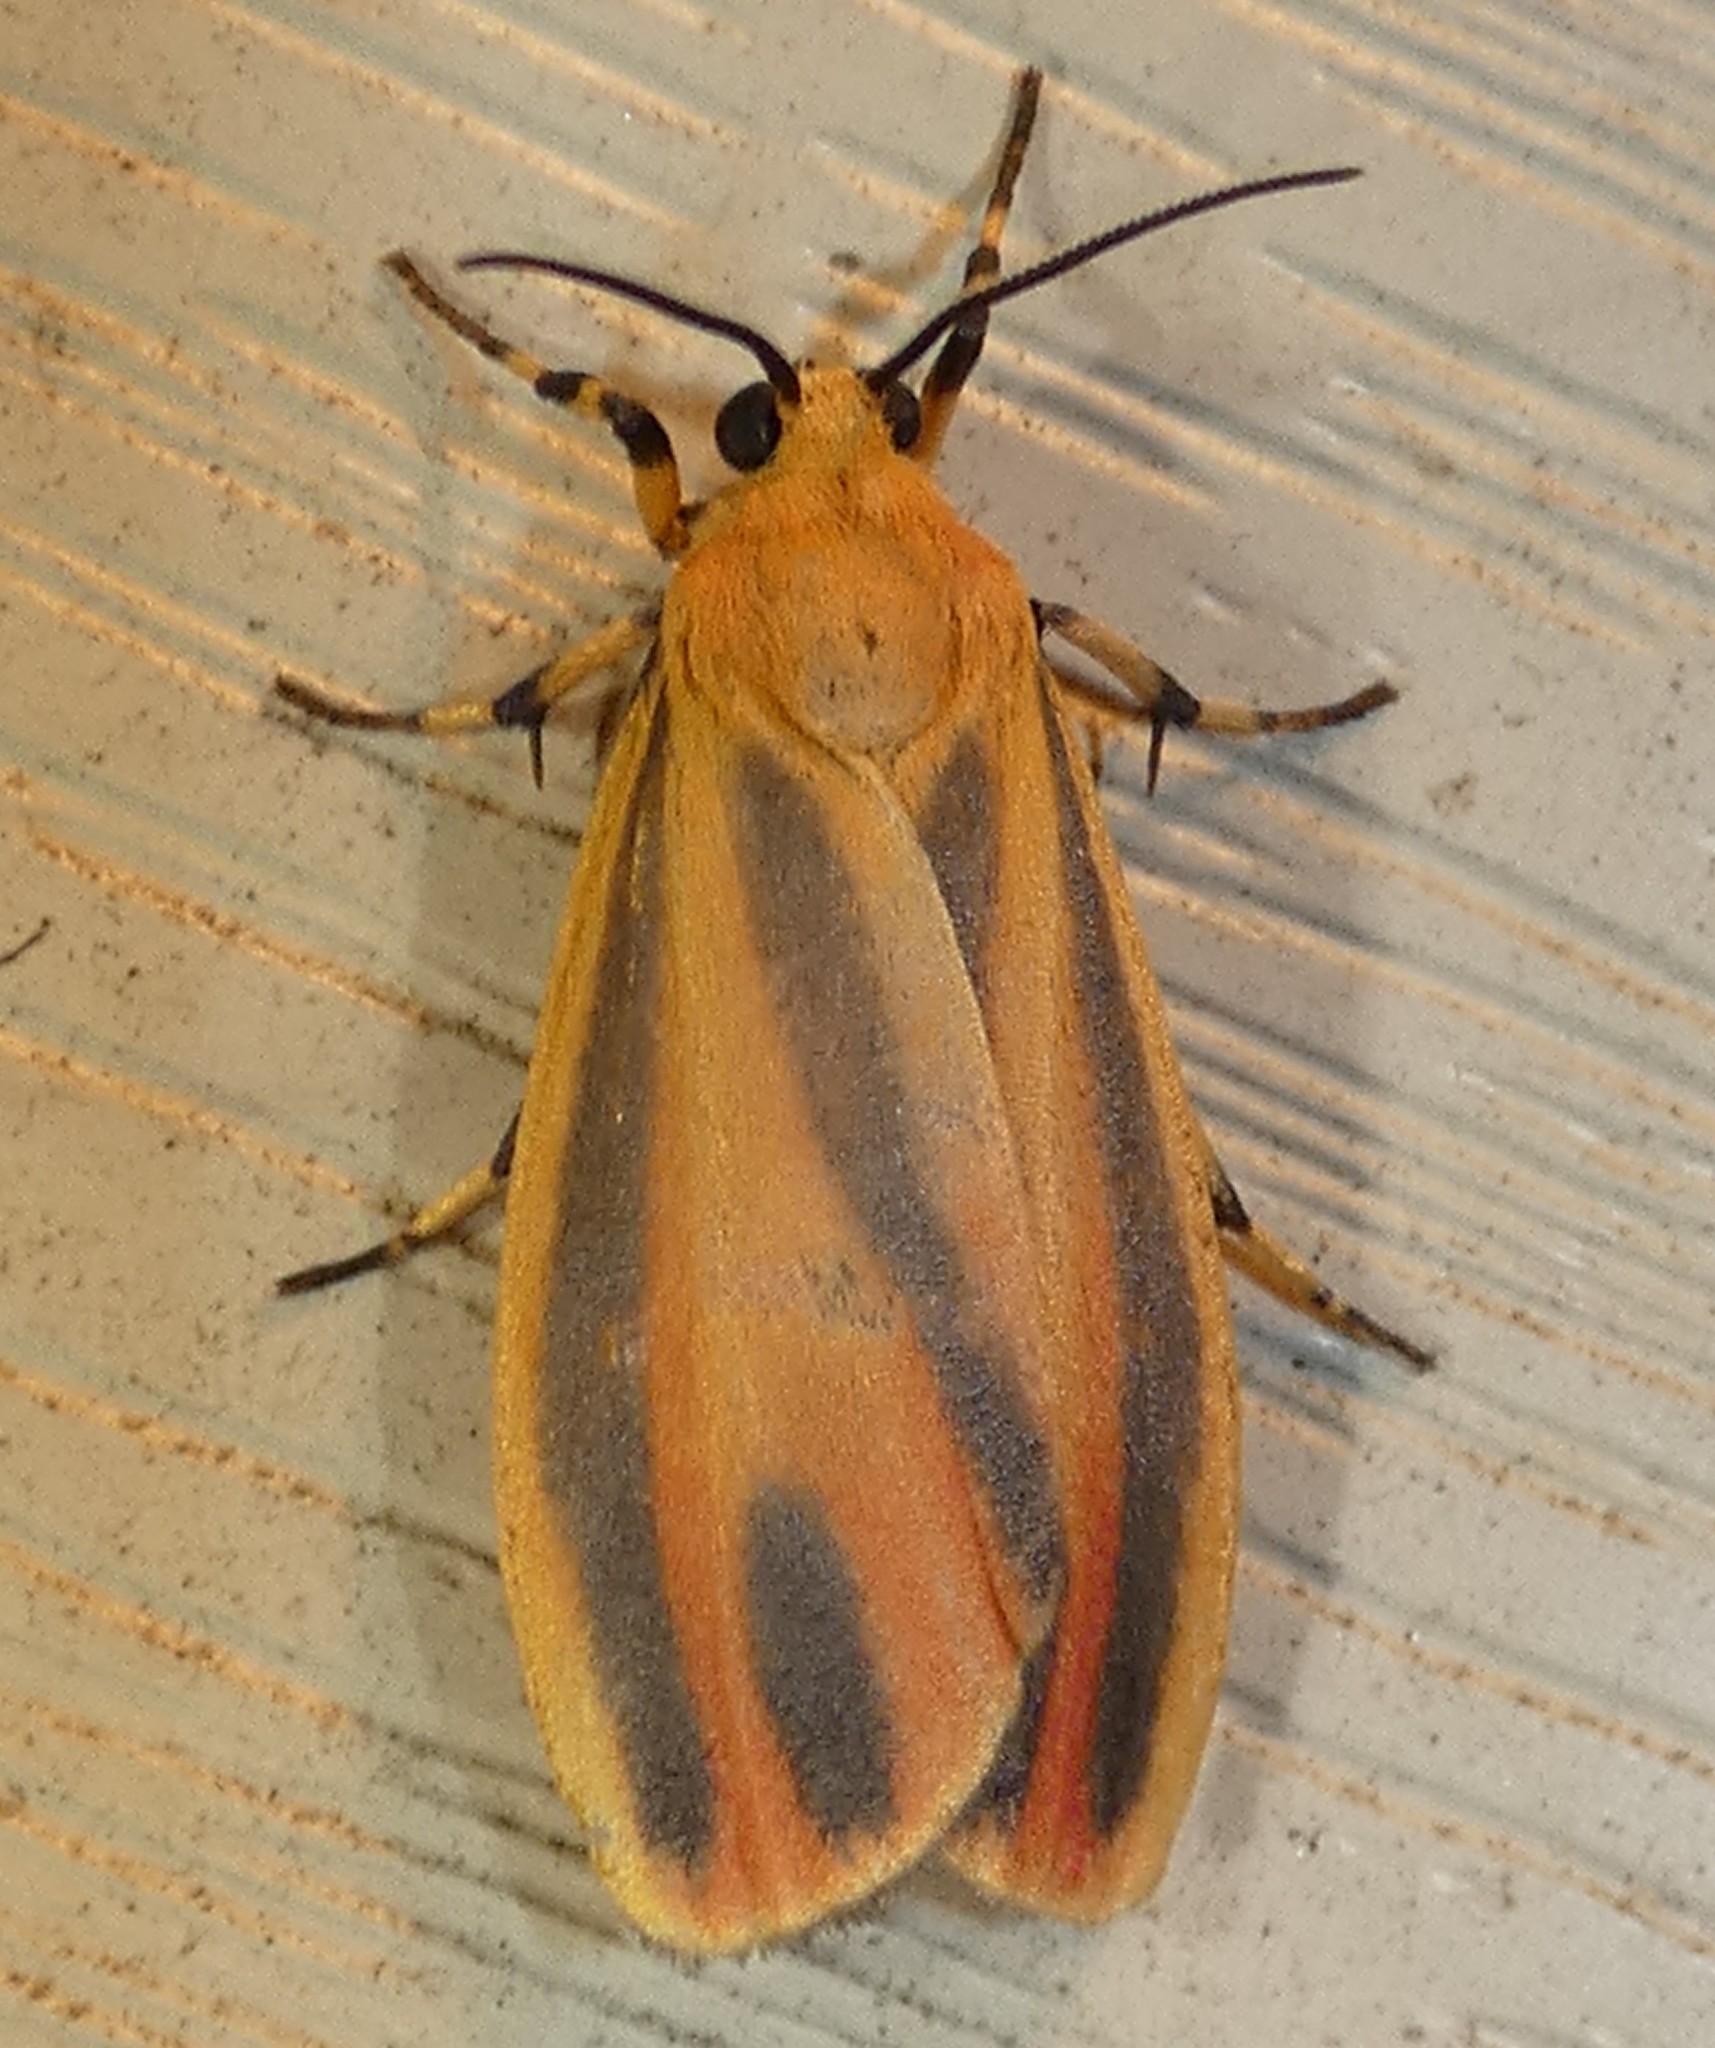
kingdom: Animalia
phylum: Arthropoda
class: Insecta
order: Lepidoptera
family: Erebidae
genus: Hypoprepia
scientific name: Hypoprepia fucosa
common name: Painted lichen moth
